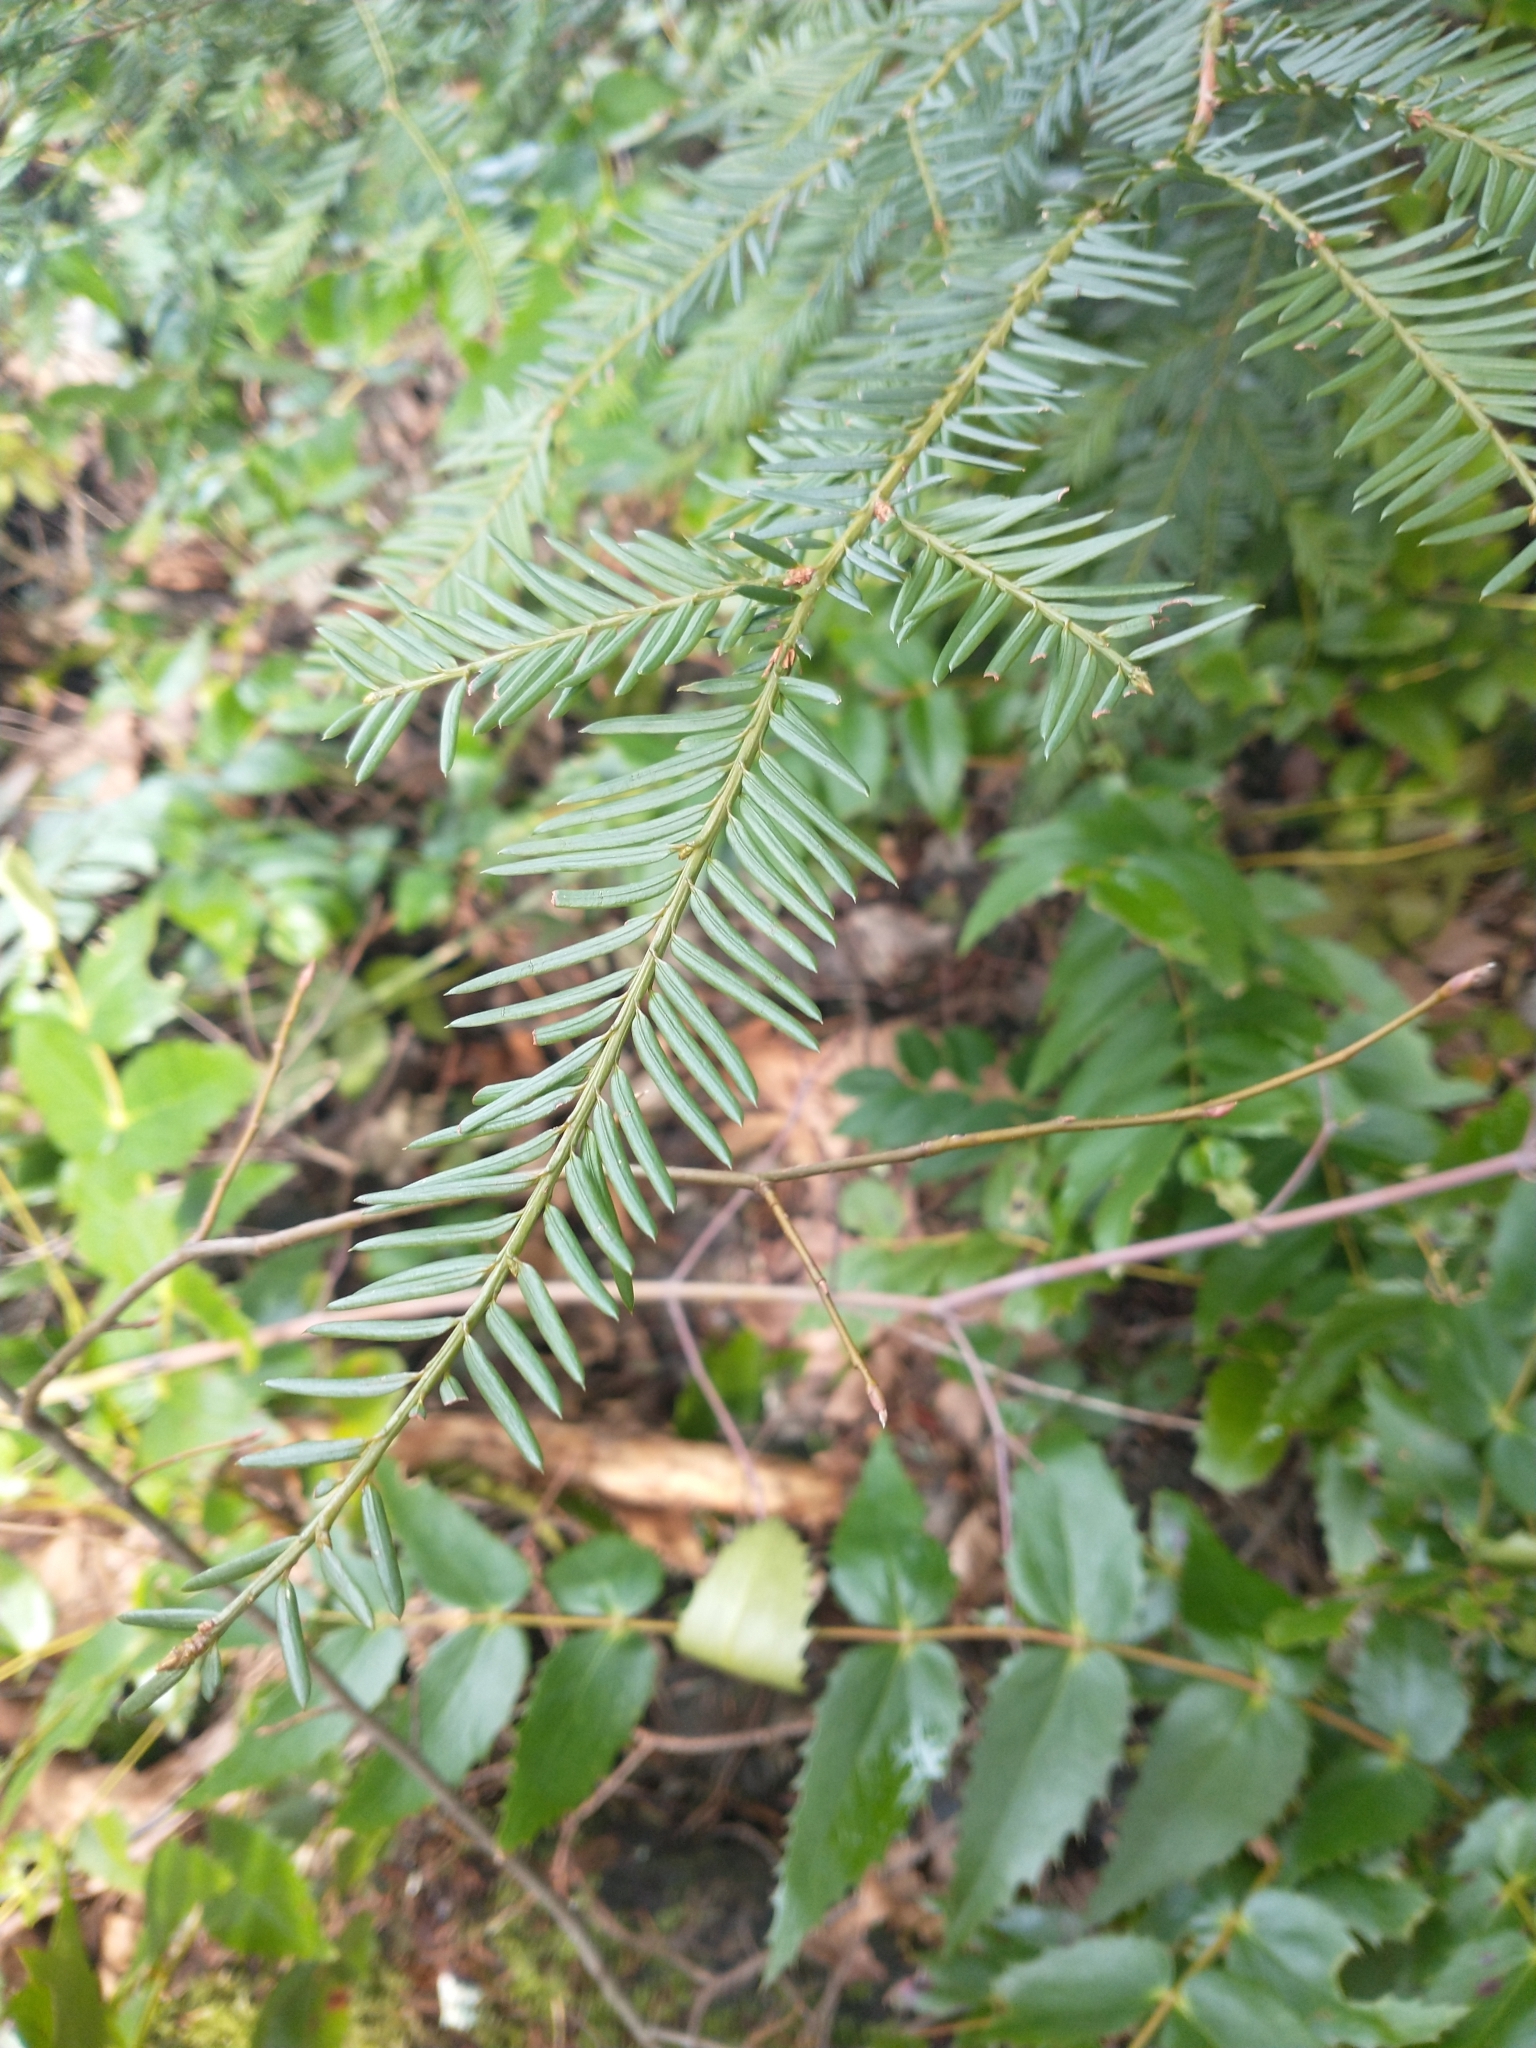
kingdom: Plantae
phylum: Tracheophyta
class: Pinopsida
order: Pinales
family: Taxaceae
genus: Taxus
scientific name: Taxus brevifolia
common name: Pacific yew
